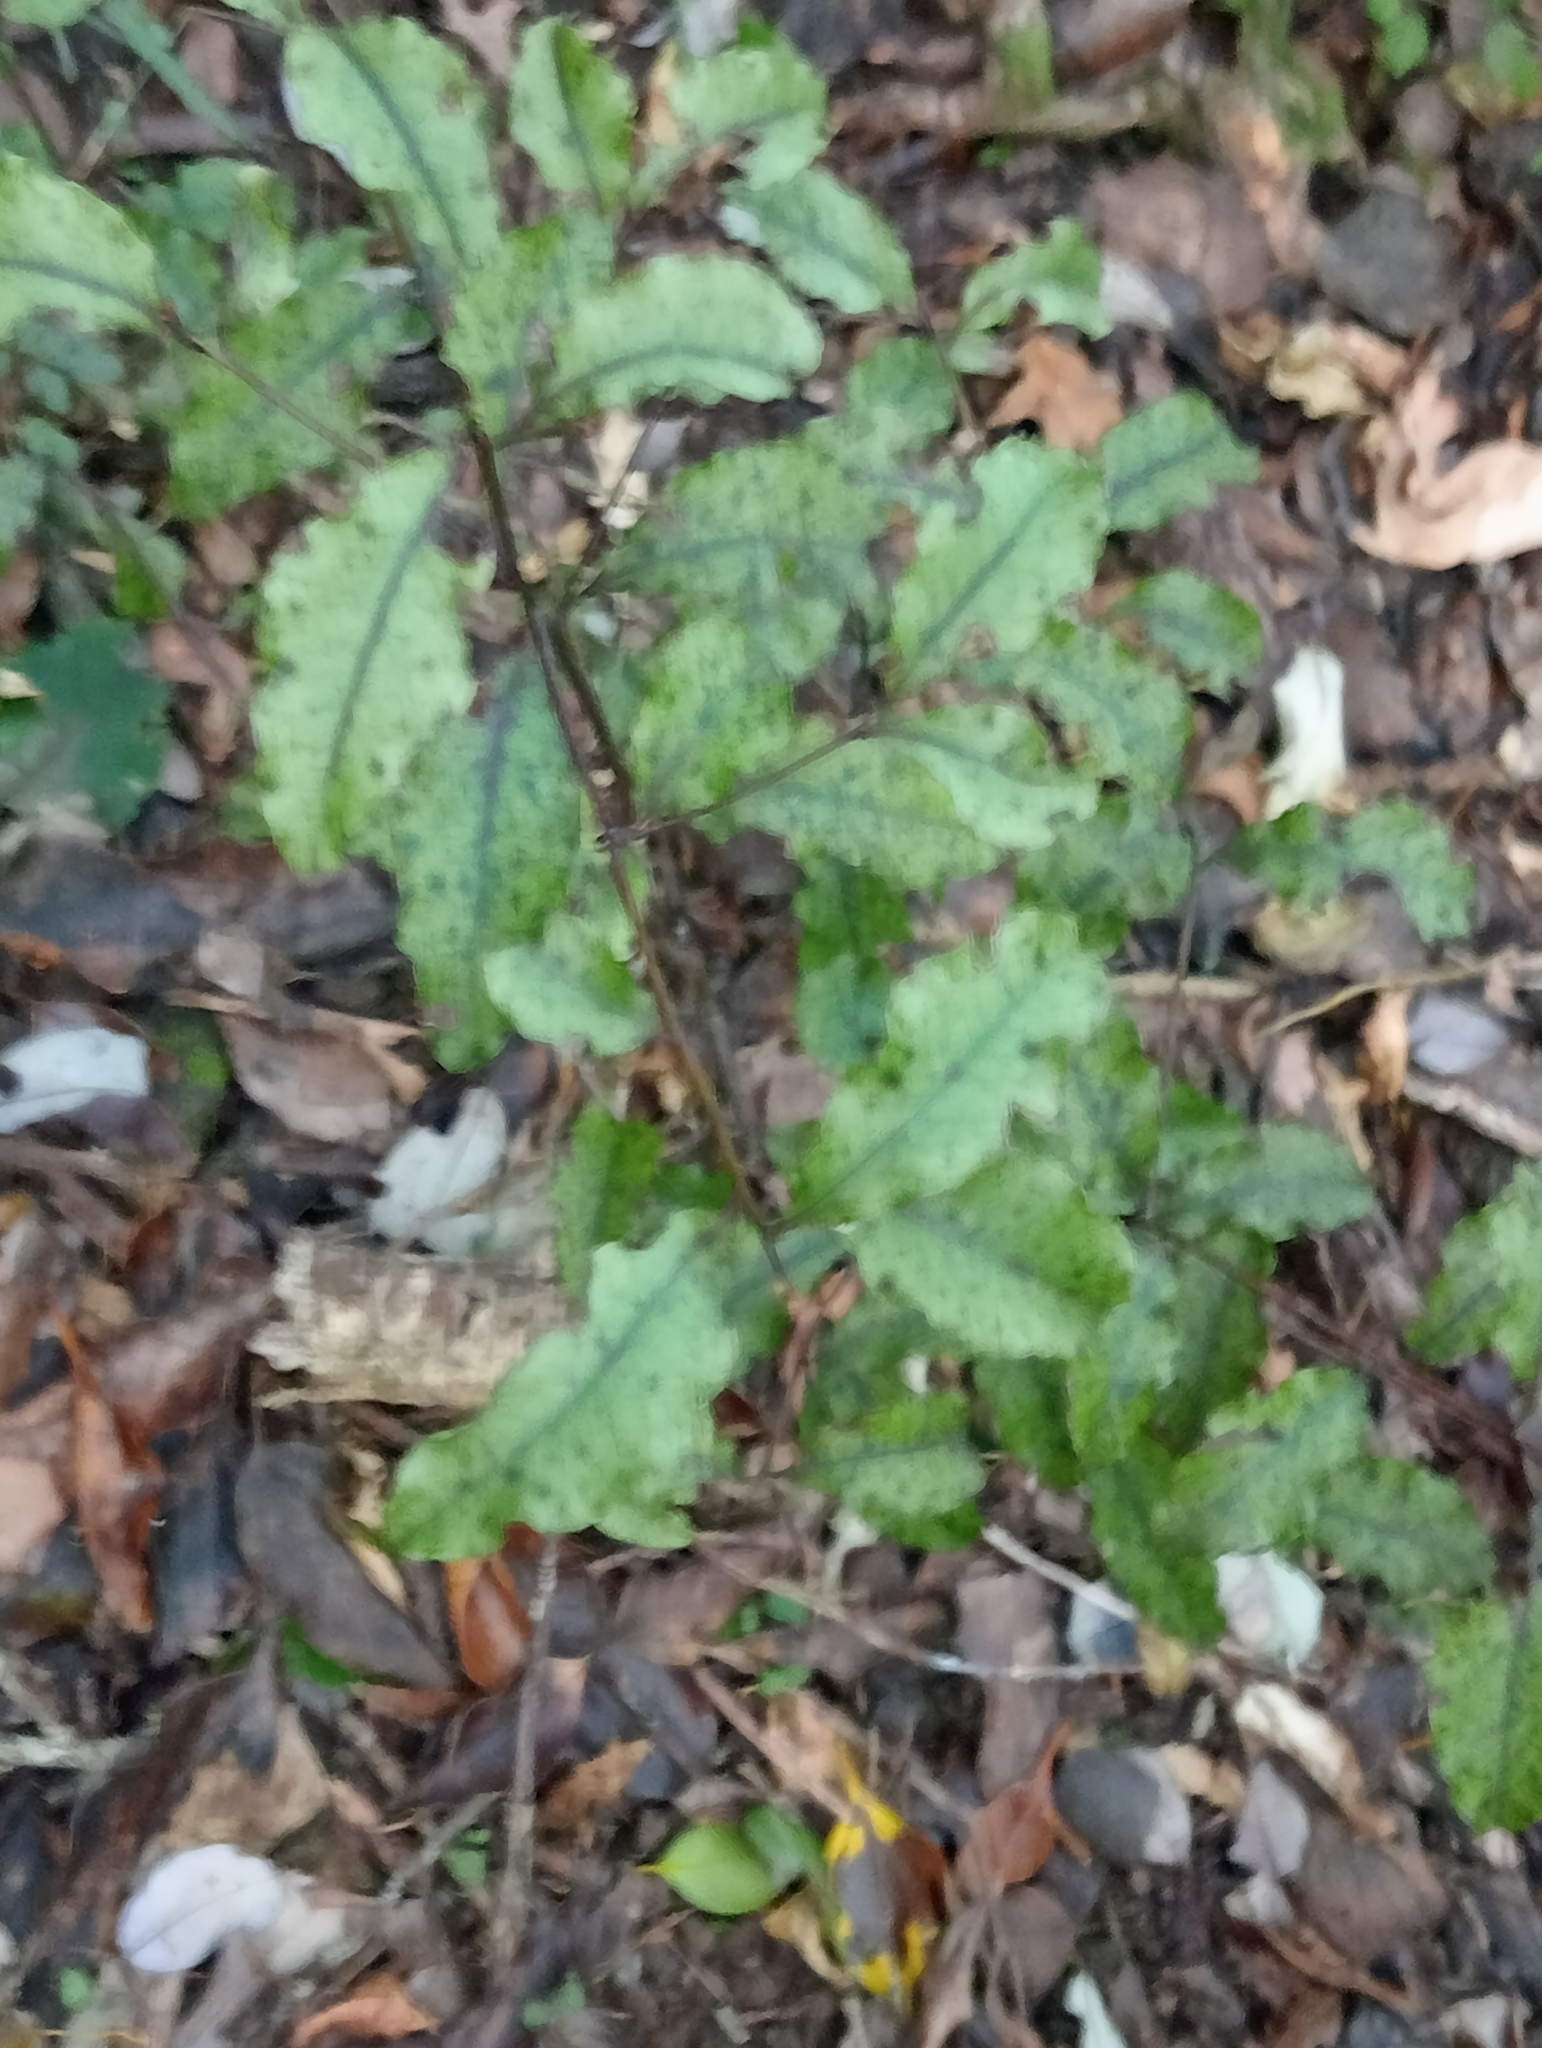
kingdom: Plantae
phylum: Tracheophyta
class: Magnoliopsida
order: Ericales
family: Primulaceae
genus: Myrsine
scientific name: Myrsine australis
